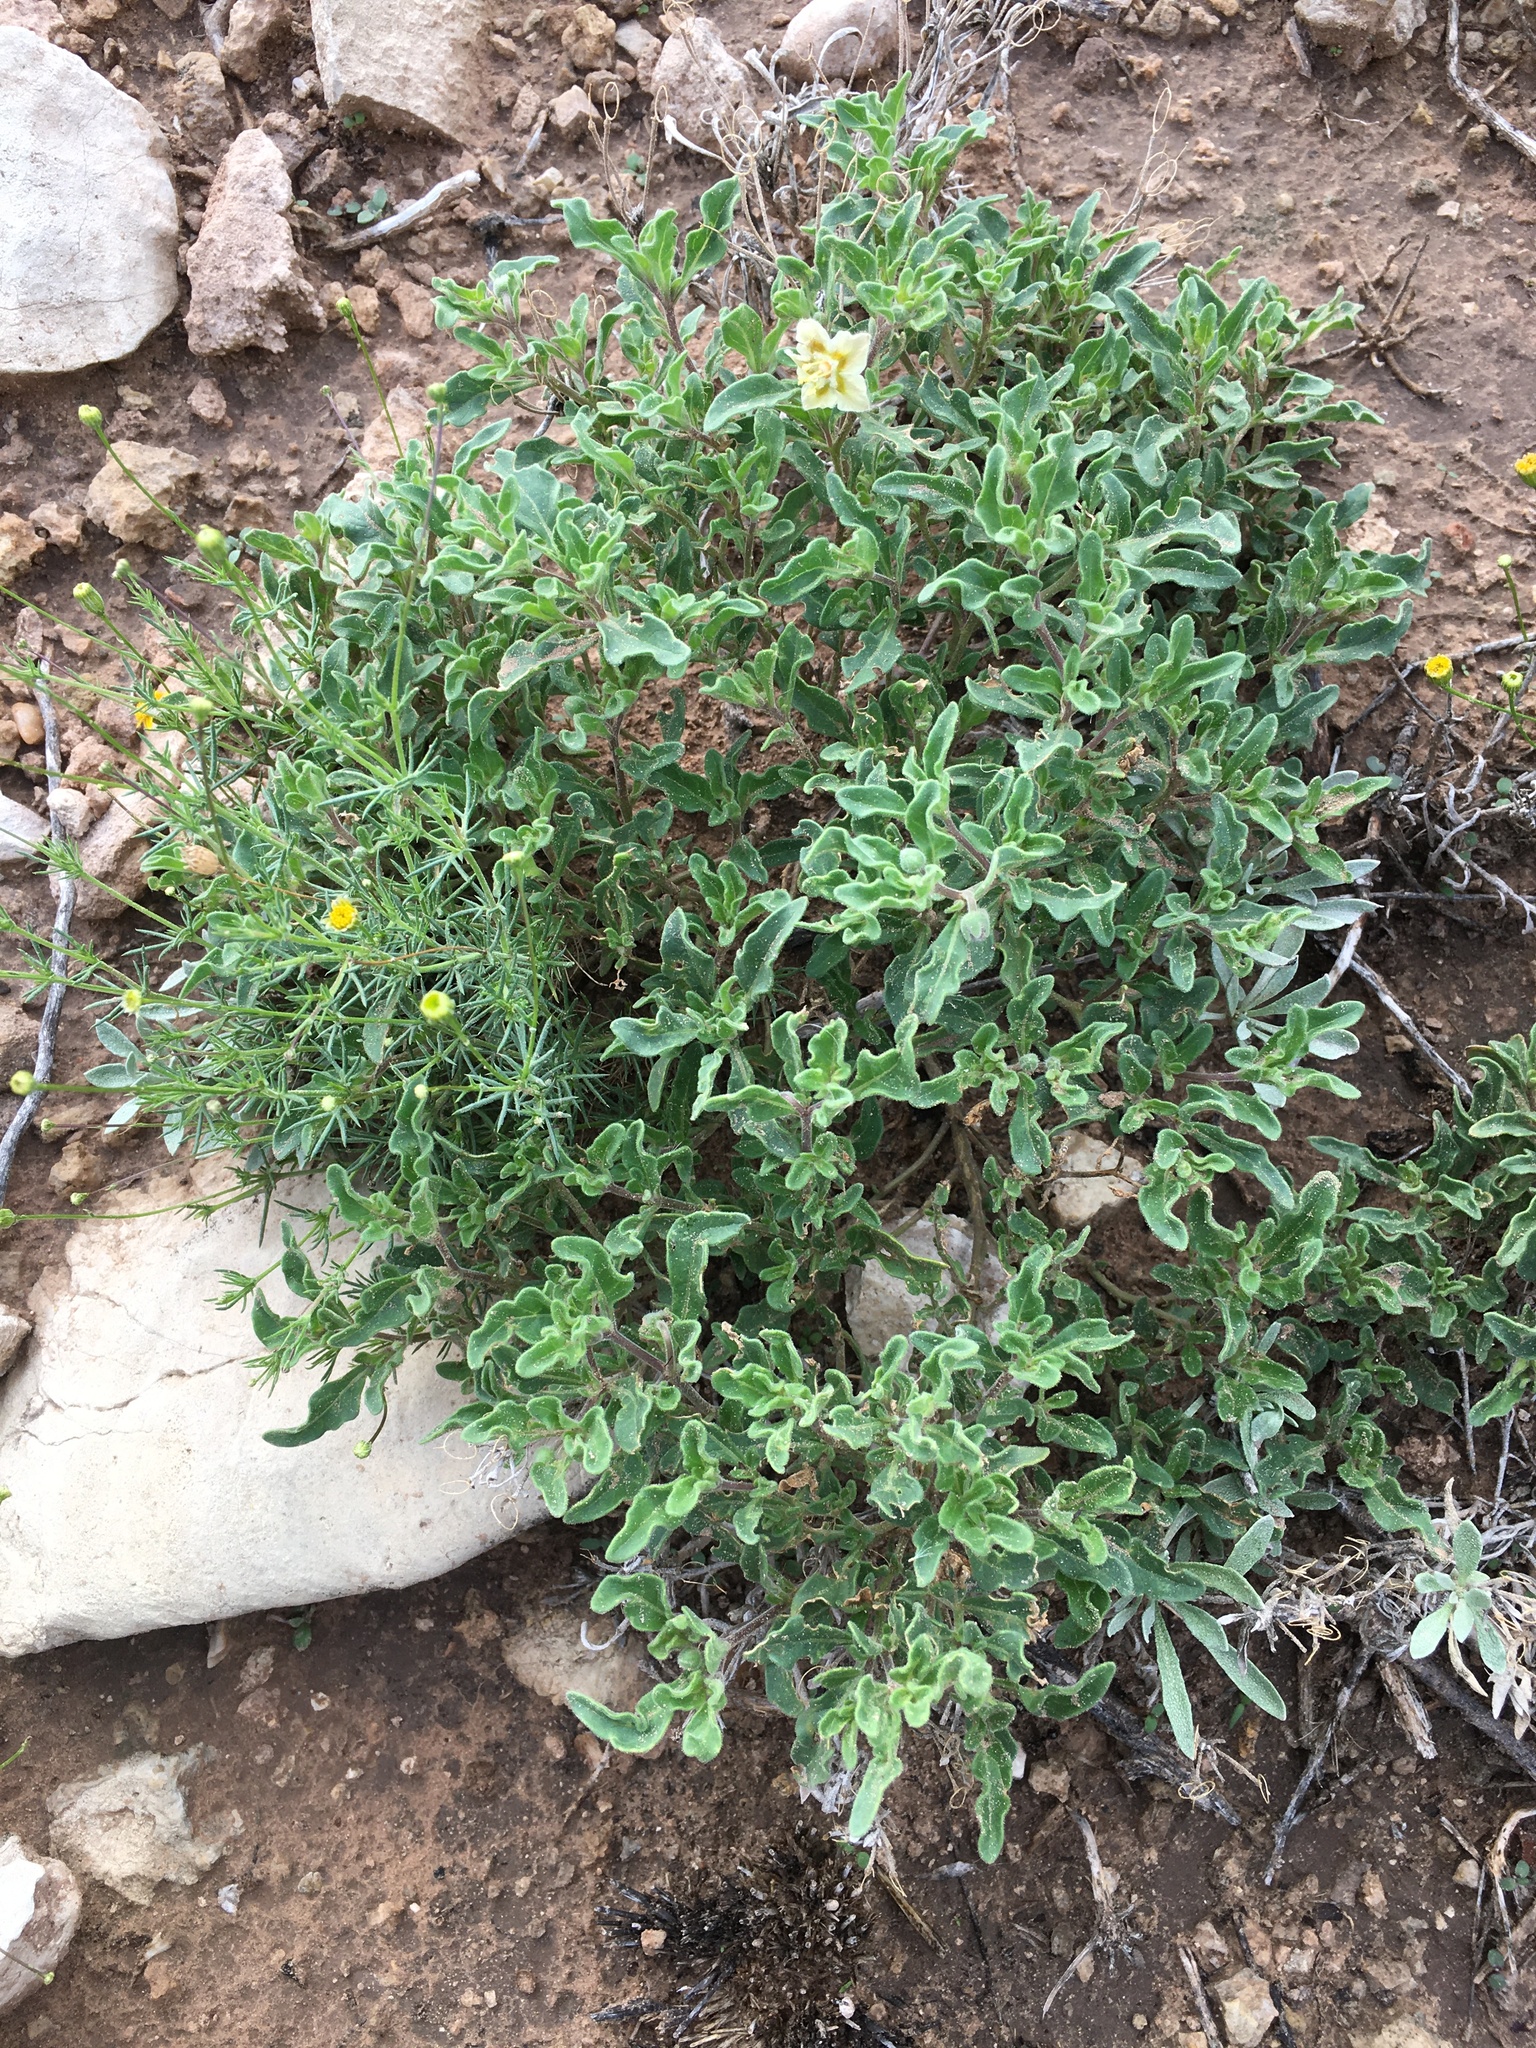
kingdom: Plantae
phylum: Tracheophyta
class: Magnoliopsida
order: Solanales
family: Solanaceae
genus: Chamaesaracha
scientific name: Chamaesaracha sordida
